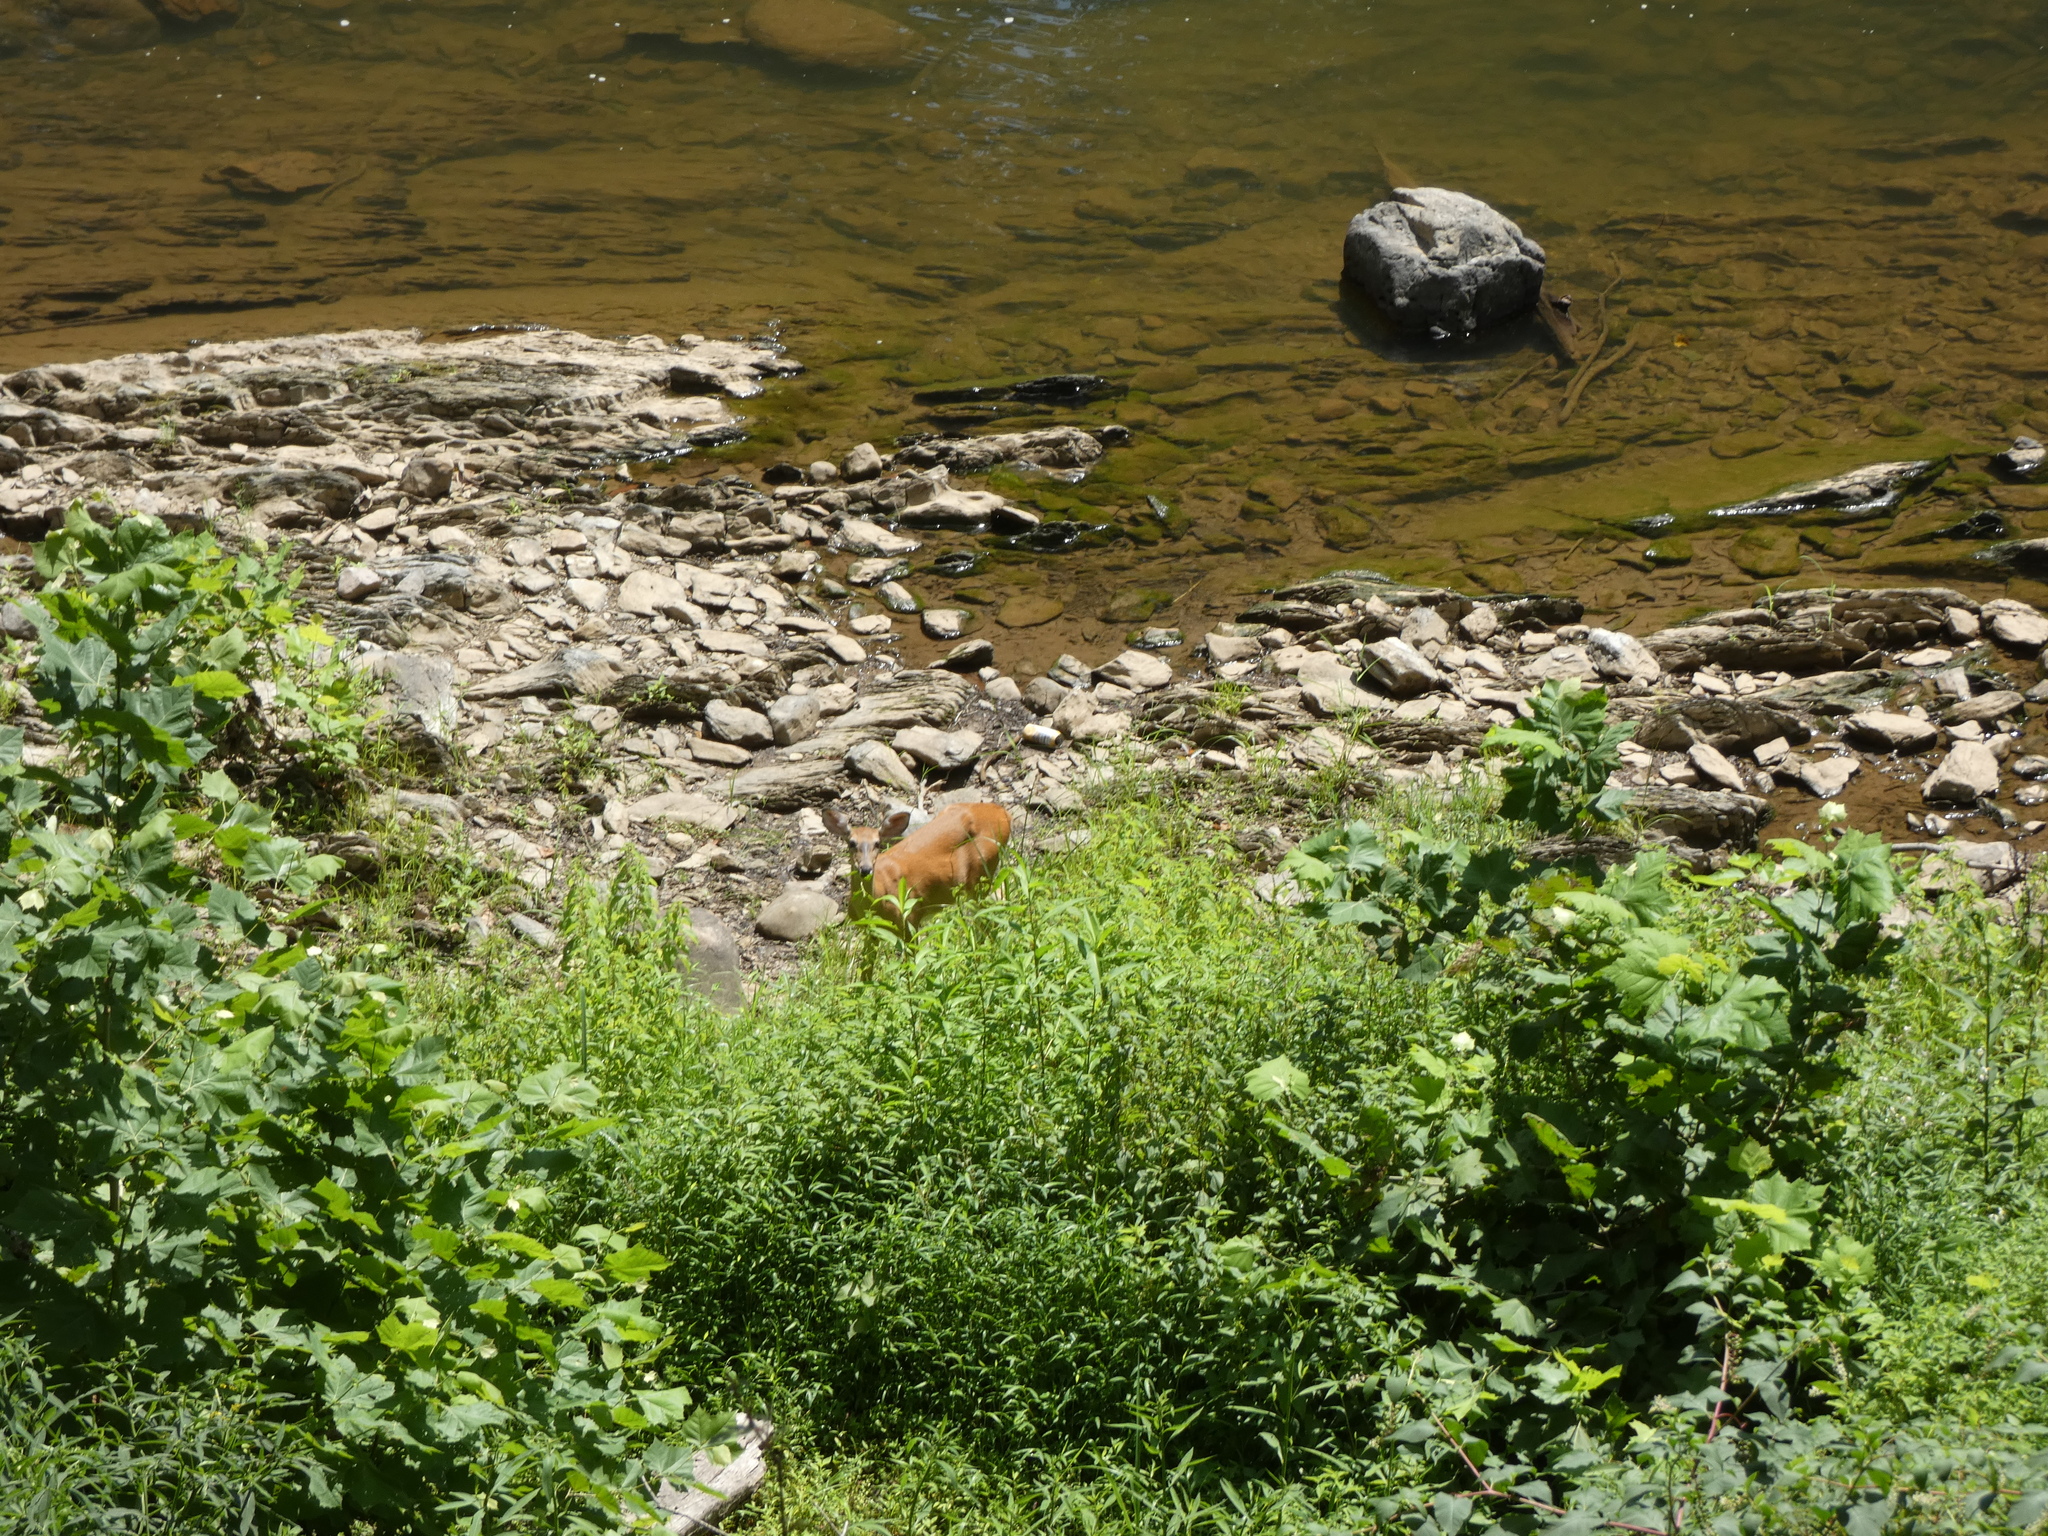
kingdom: Animalia
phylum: Chordata
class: Mammalia
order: Artiodactyla
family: Cervidae
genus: Odocoileus
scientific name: Odocoileus virginianus
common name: White-tailed deer
